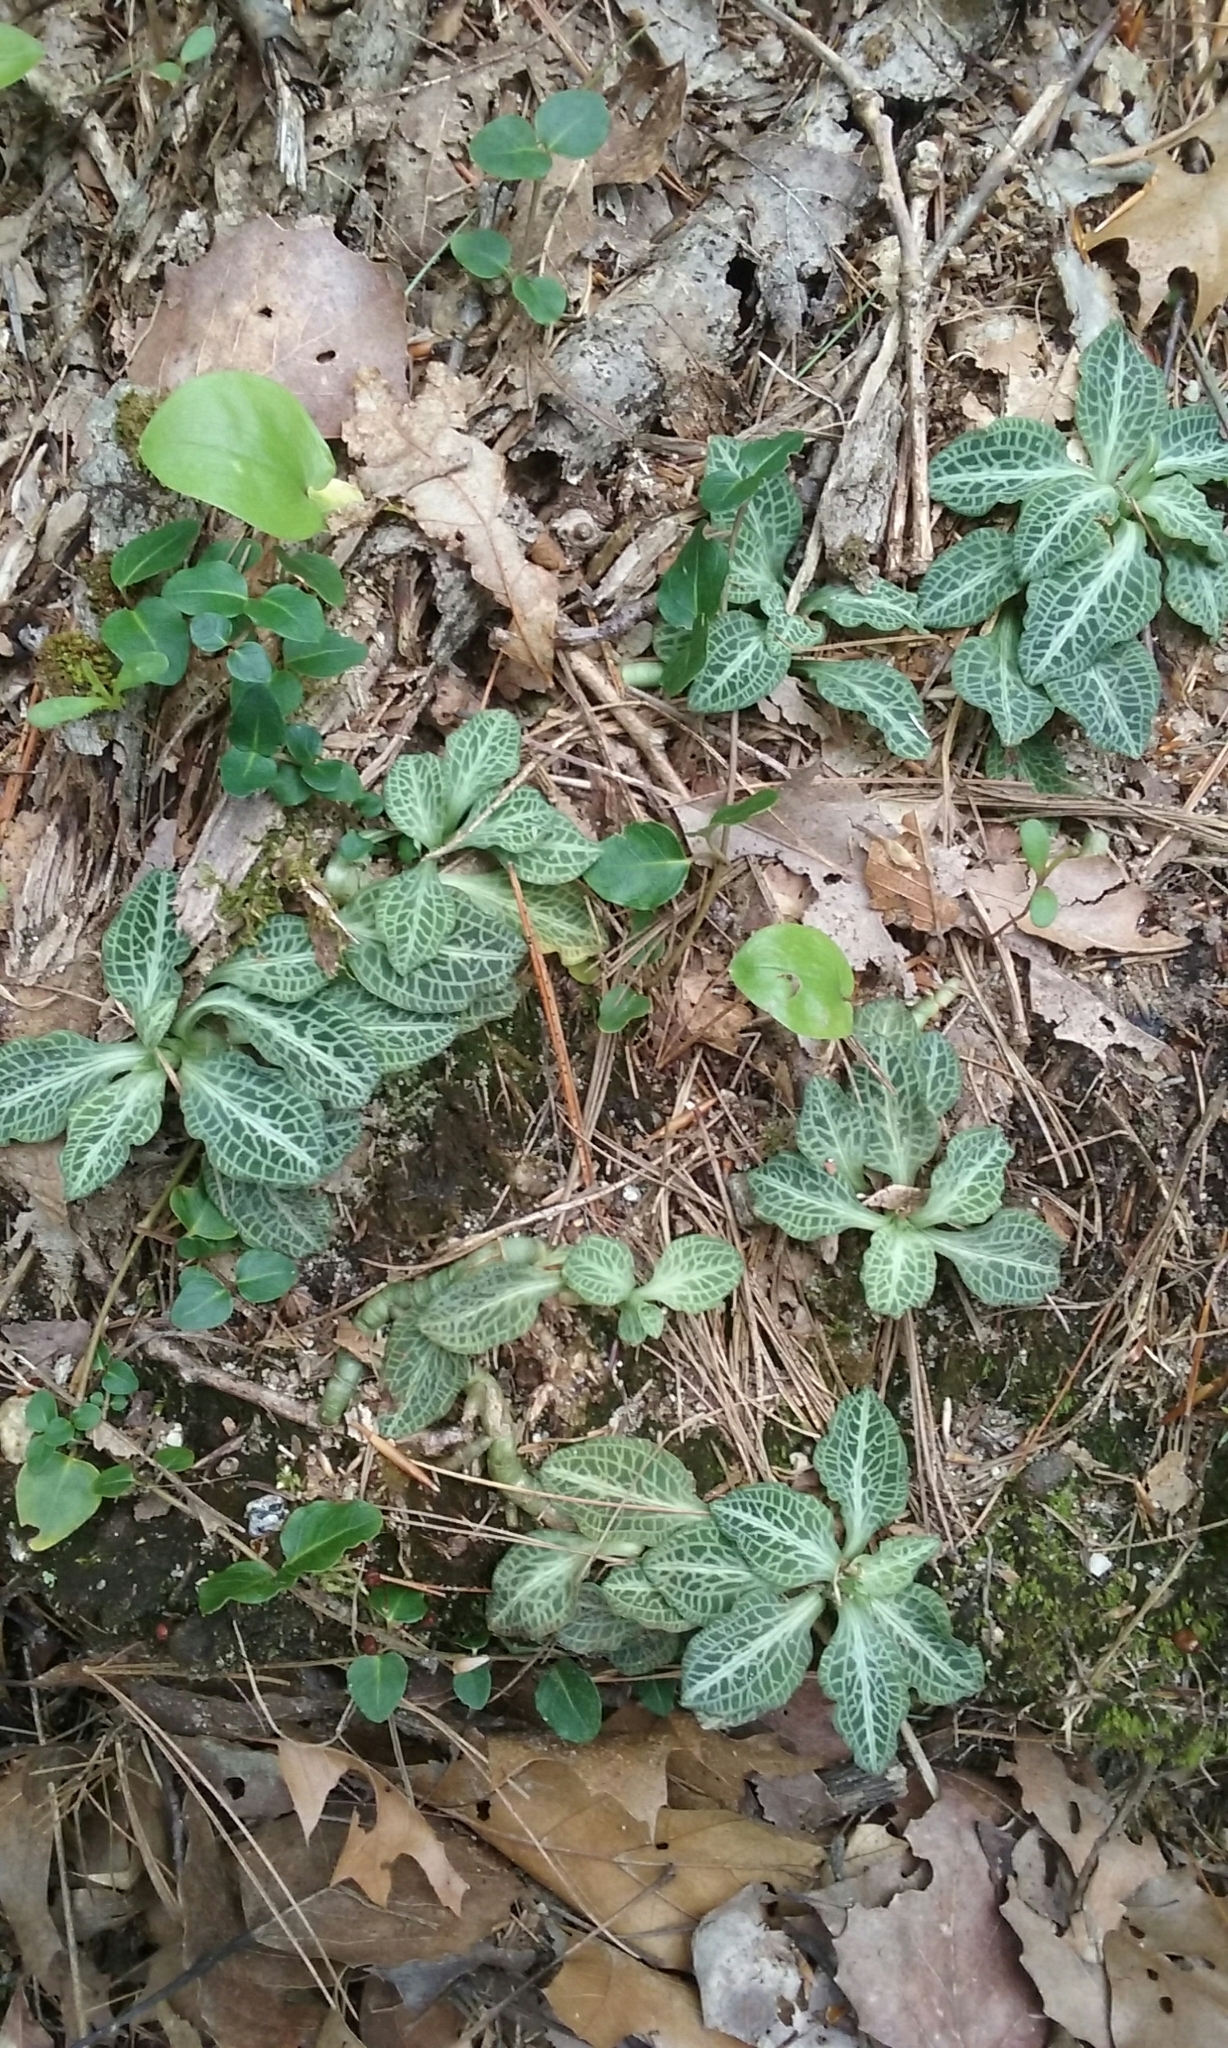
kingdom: Plantae
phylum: Tracheophyta
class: Liliopsida
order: Asparagales
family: Orchidaceae
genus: Goodyera
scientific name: Goodyera pubescens
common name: Downy rattlesnake-plantain
